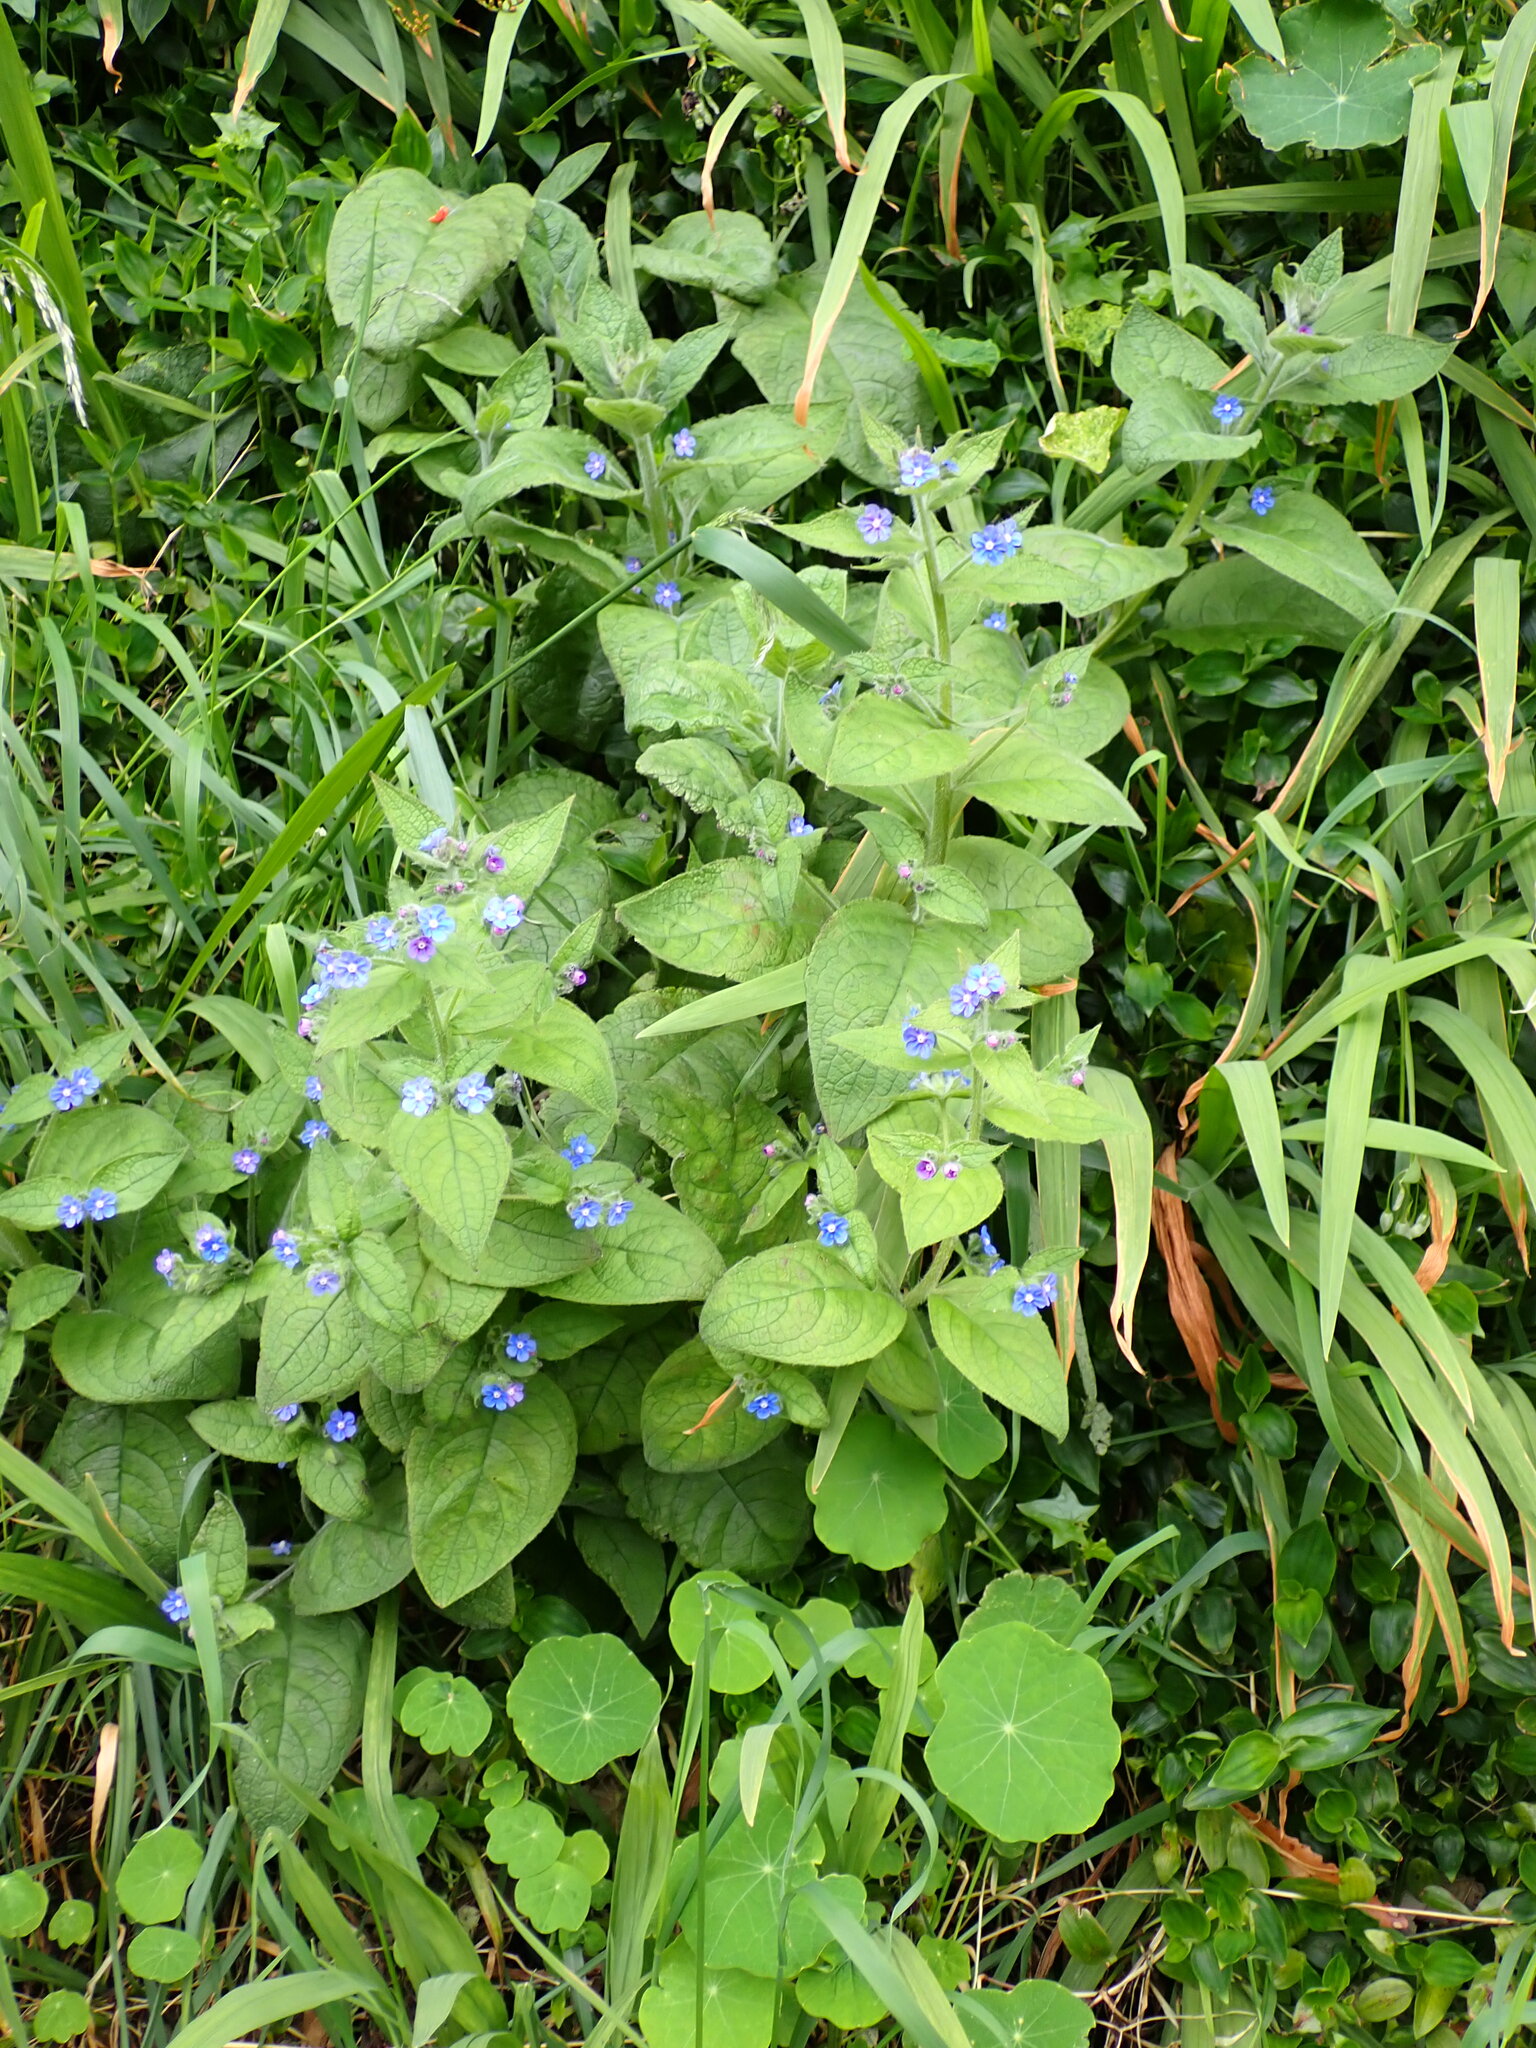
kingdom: Plantae
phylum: Tracheophyta
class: Magnoliopsida
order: Boraginales
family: Boraginaceae
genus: Pentaglottis
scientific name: Pentaglottis sempervirens
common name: Green alkanet
